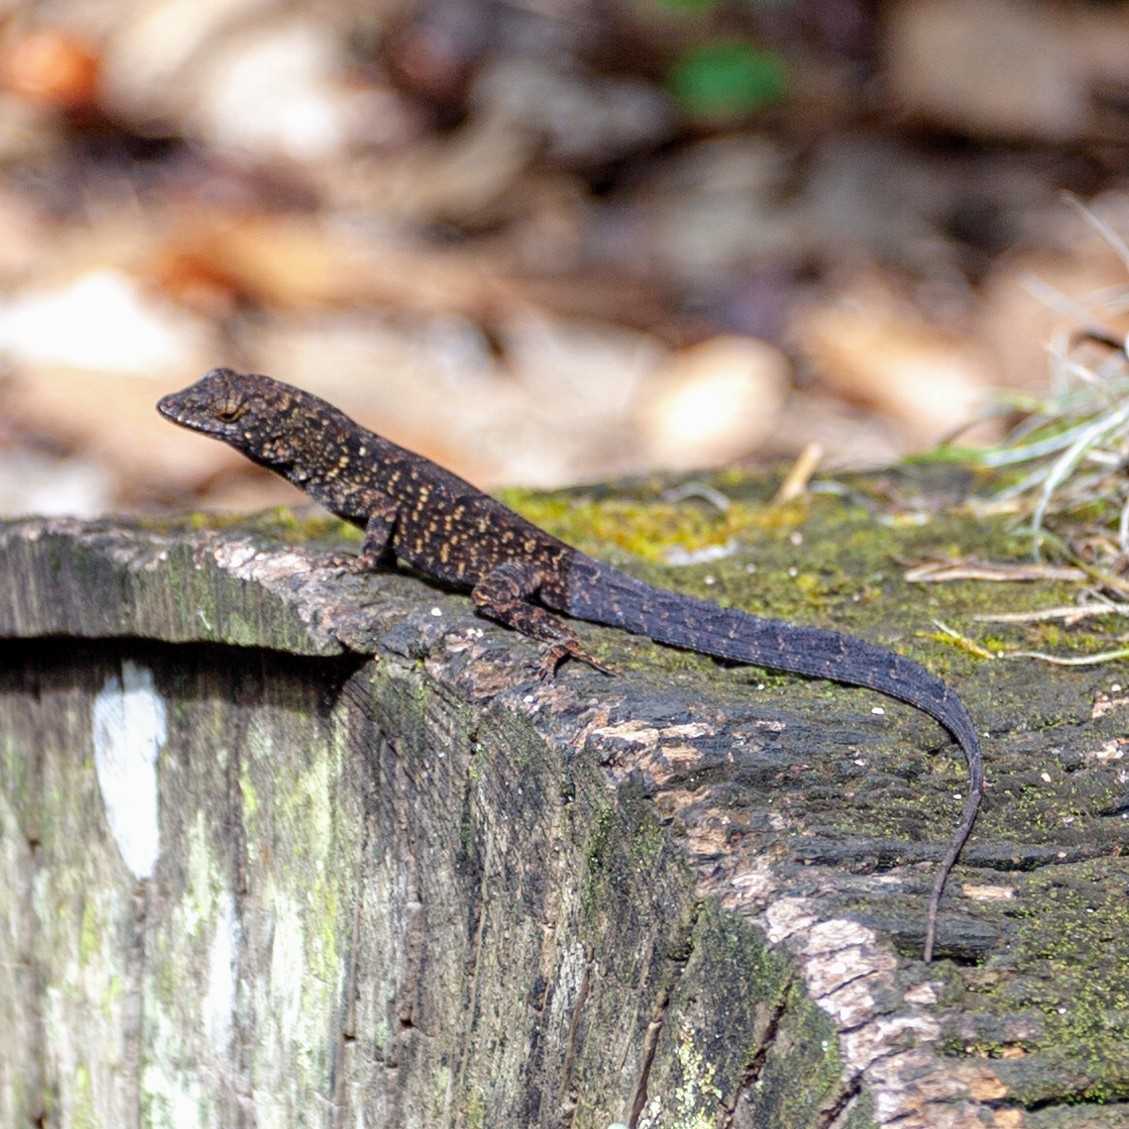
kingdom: Animalia
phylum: Chordata
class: Squamata
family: Dactyloidae
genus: Anolis
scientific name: Anolis sagrei
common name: Brown anole
